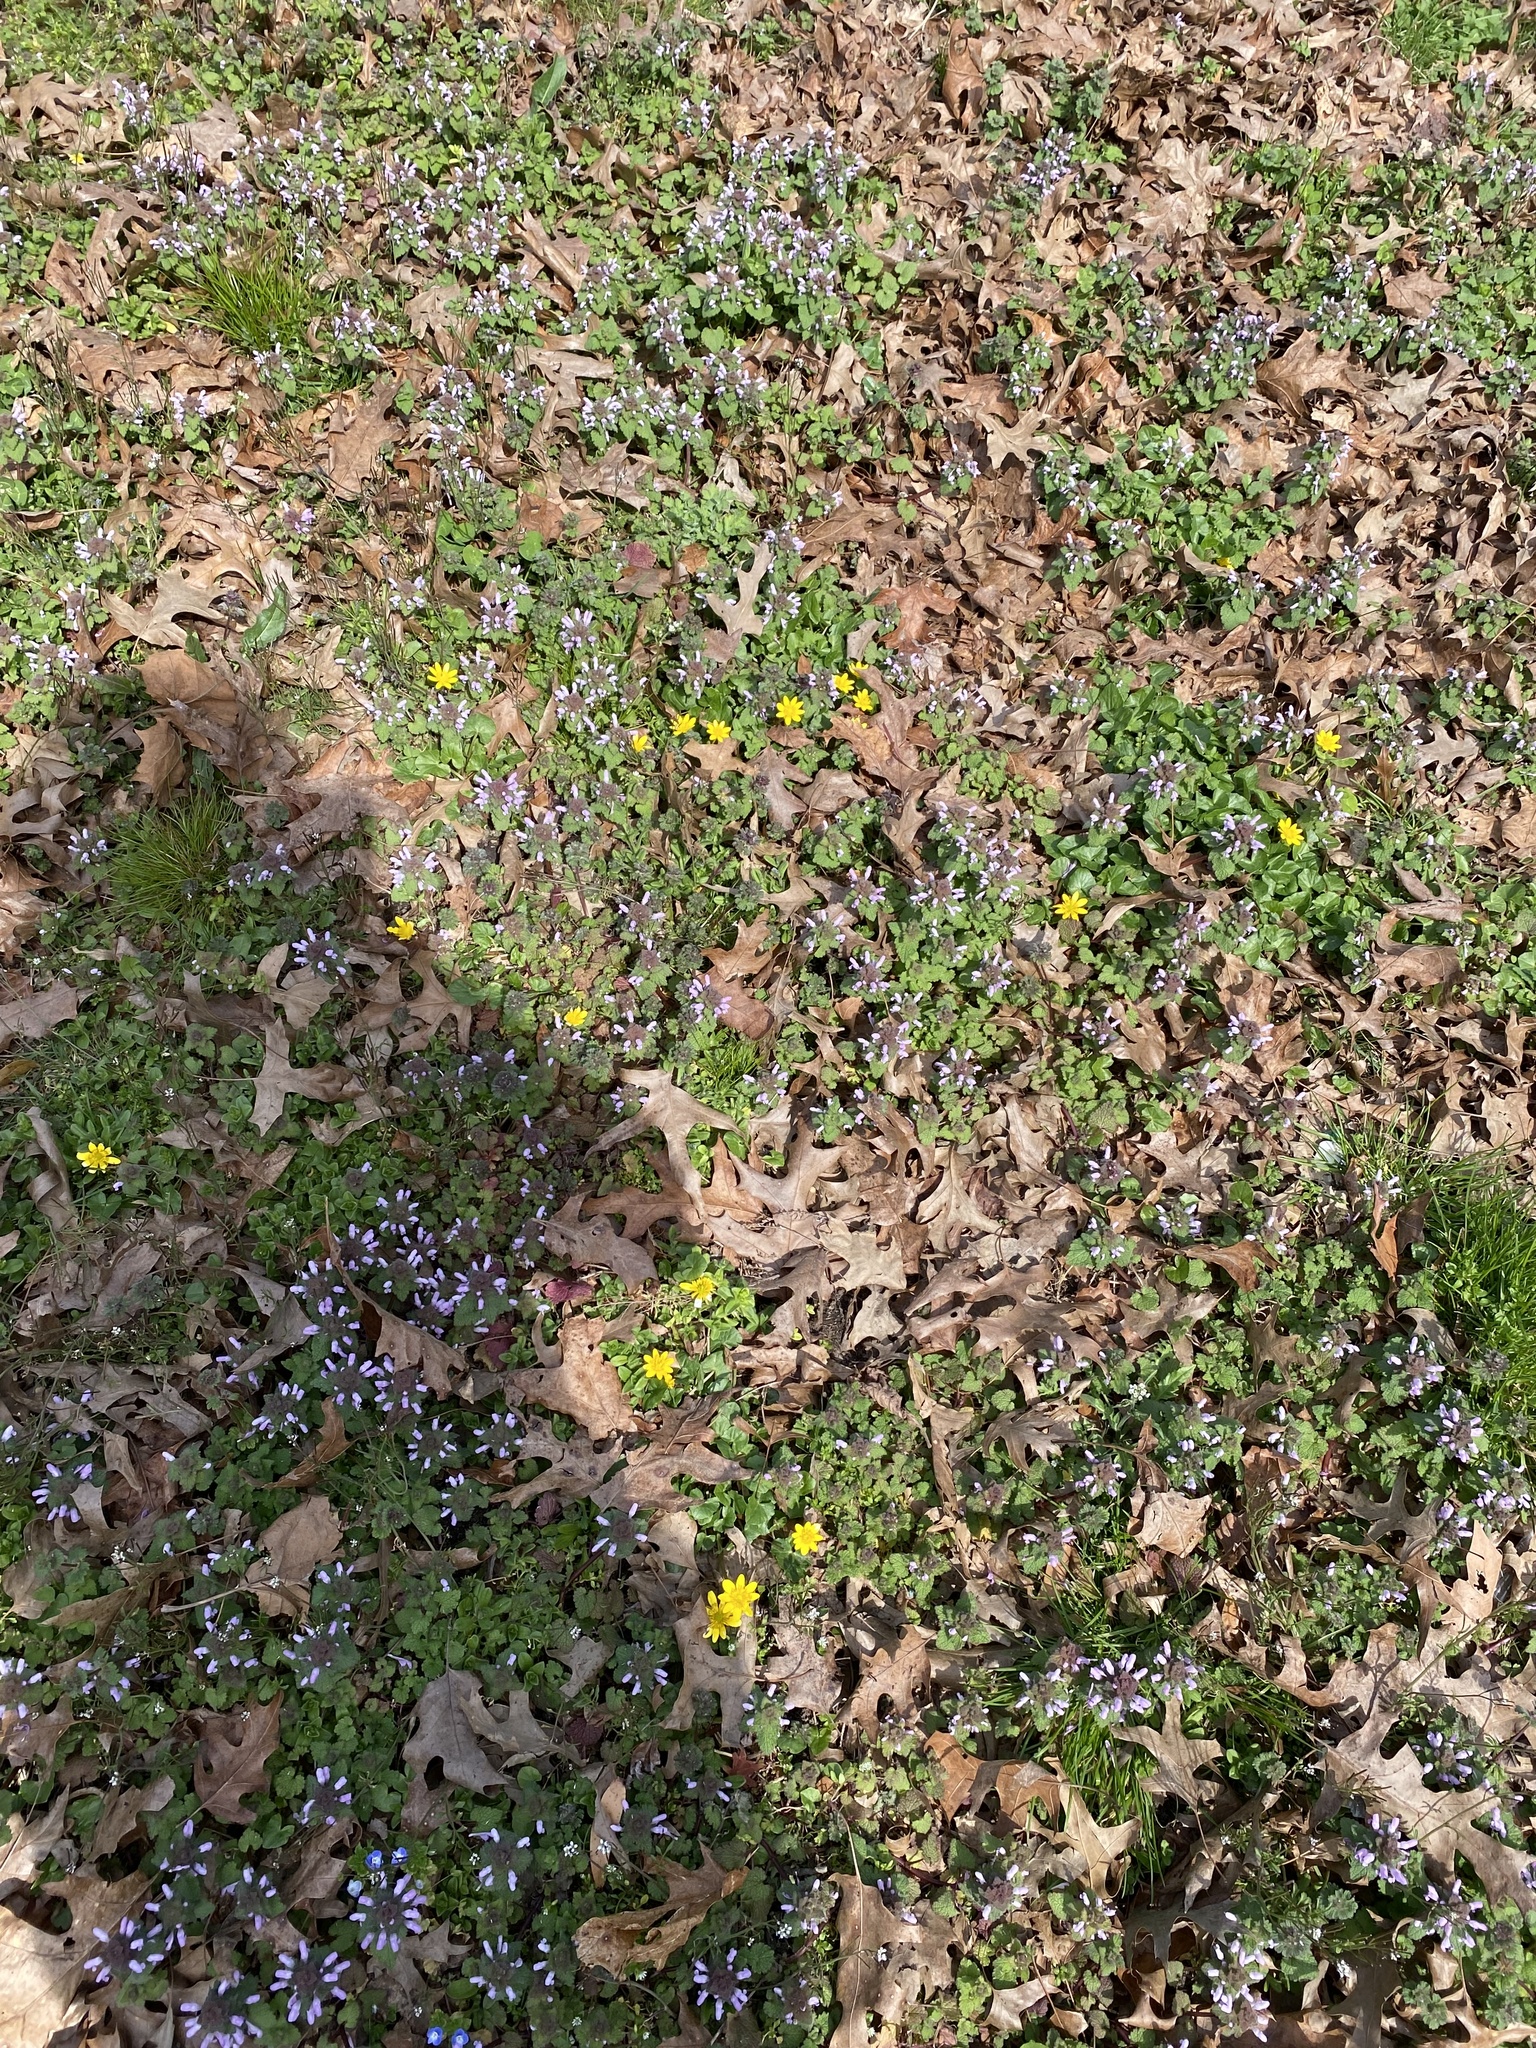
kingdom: Plantae
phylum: Tracheophyta
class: Magnoliopsida
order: Lamiales
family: Lamiaceae
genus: Lamium
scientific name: Lamium purpureum
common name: Red dead-nettle
